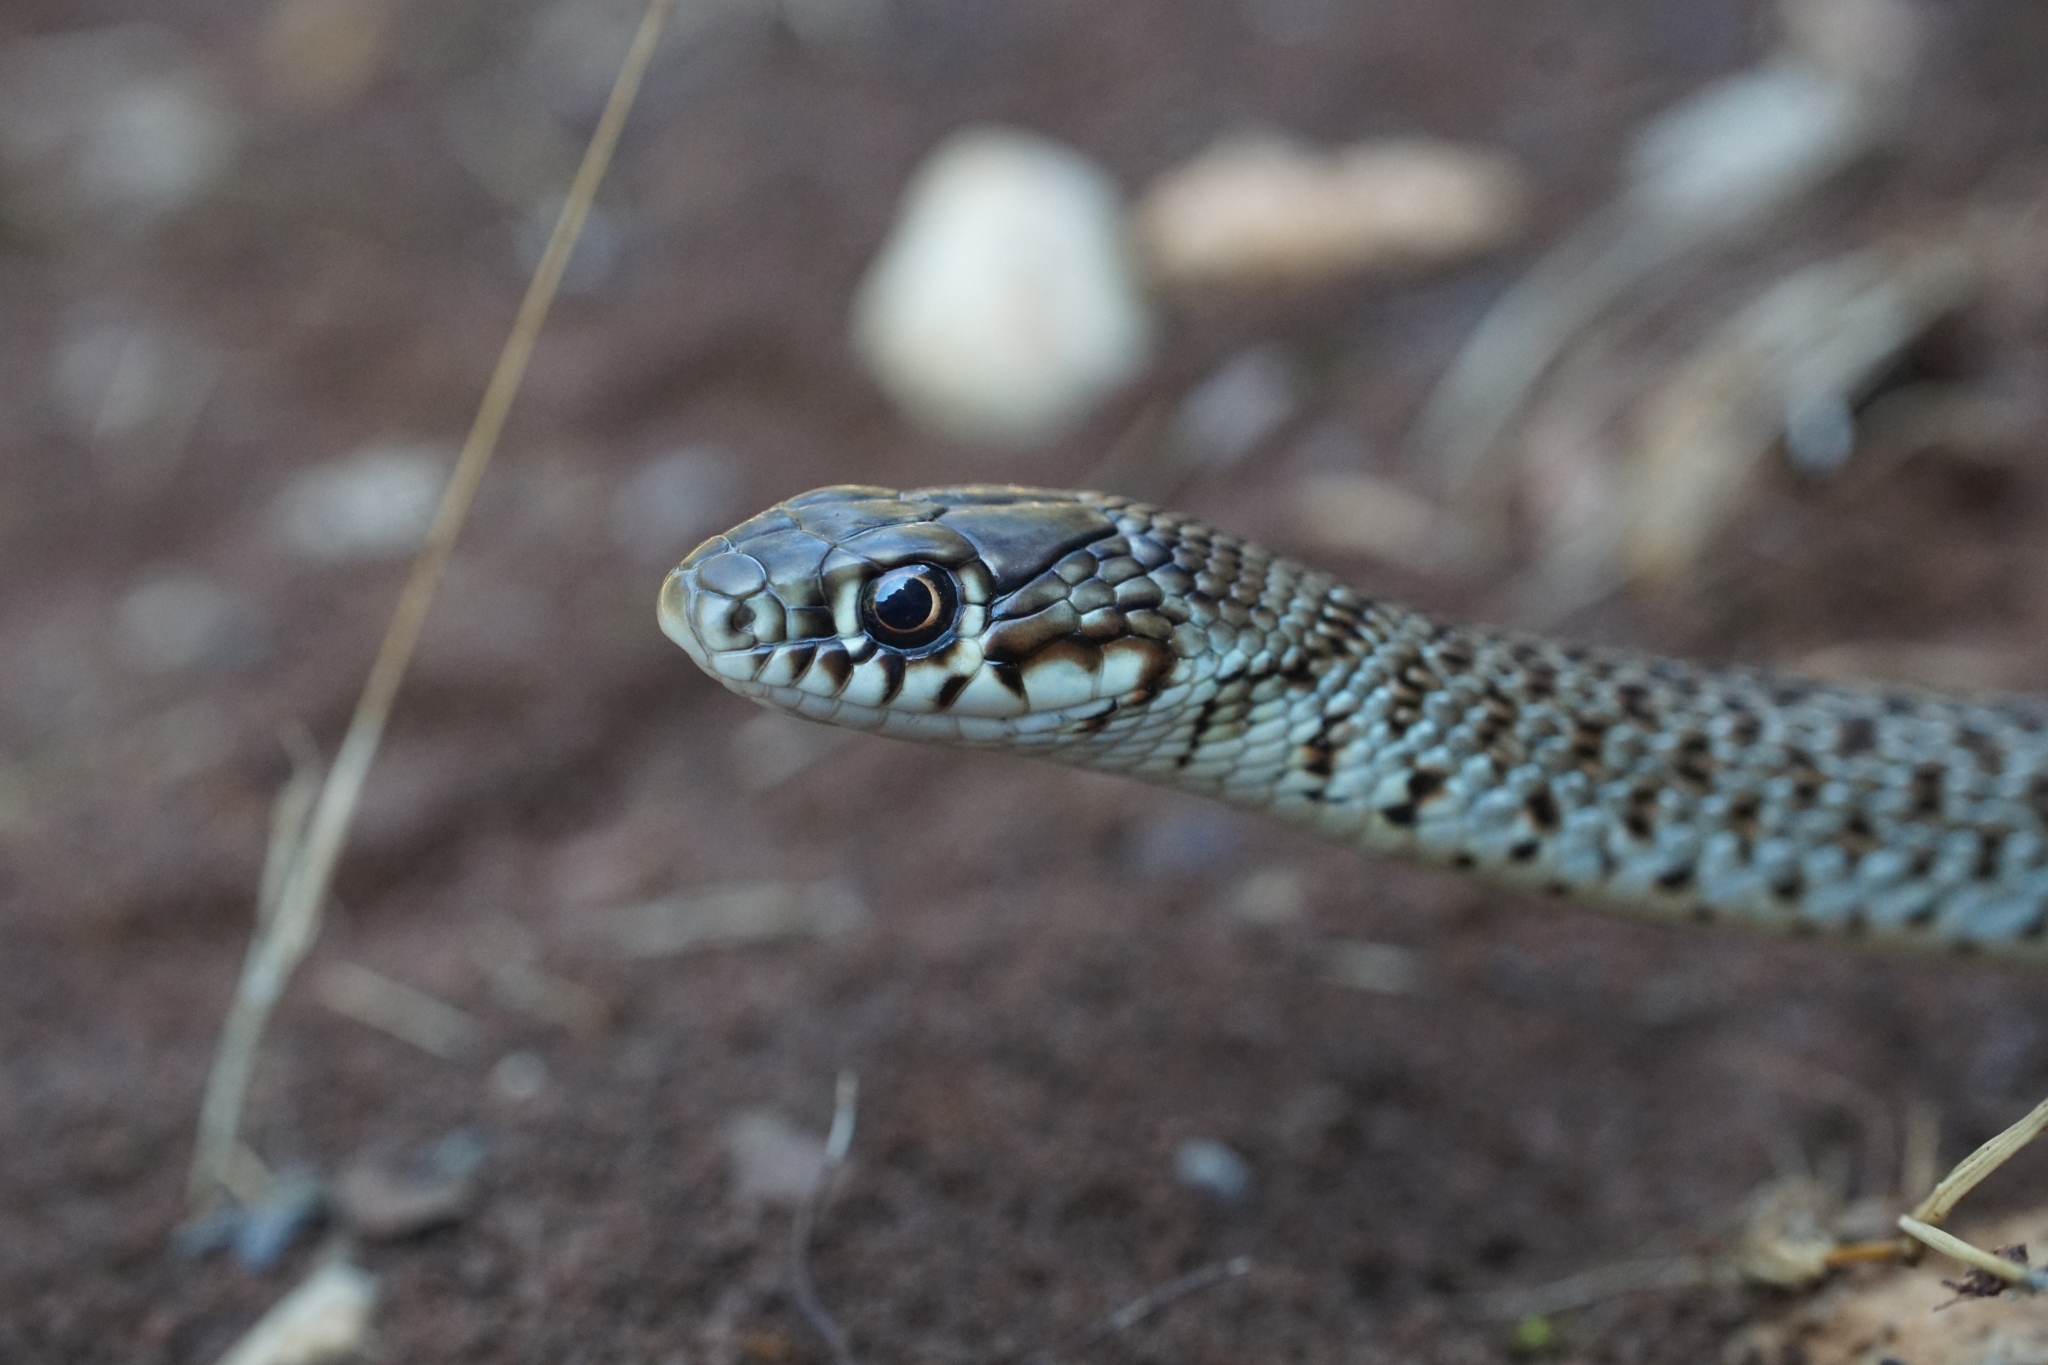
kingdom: Animalia
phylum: Chordata
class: Squamata
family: Colubridae
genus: Hierophis
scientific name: Hierophis gemonensis
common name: Balkan whip snake
